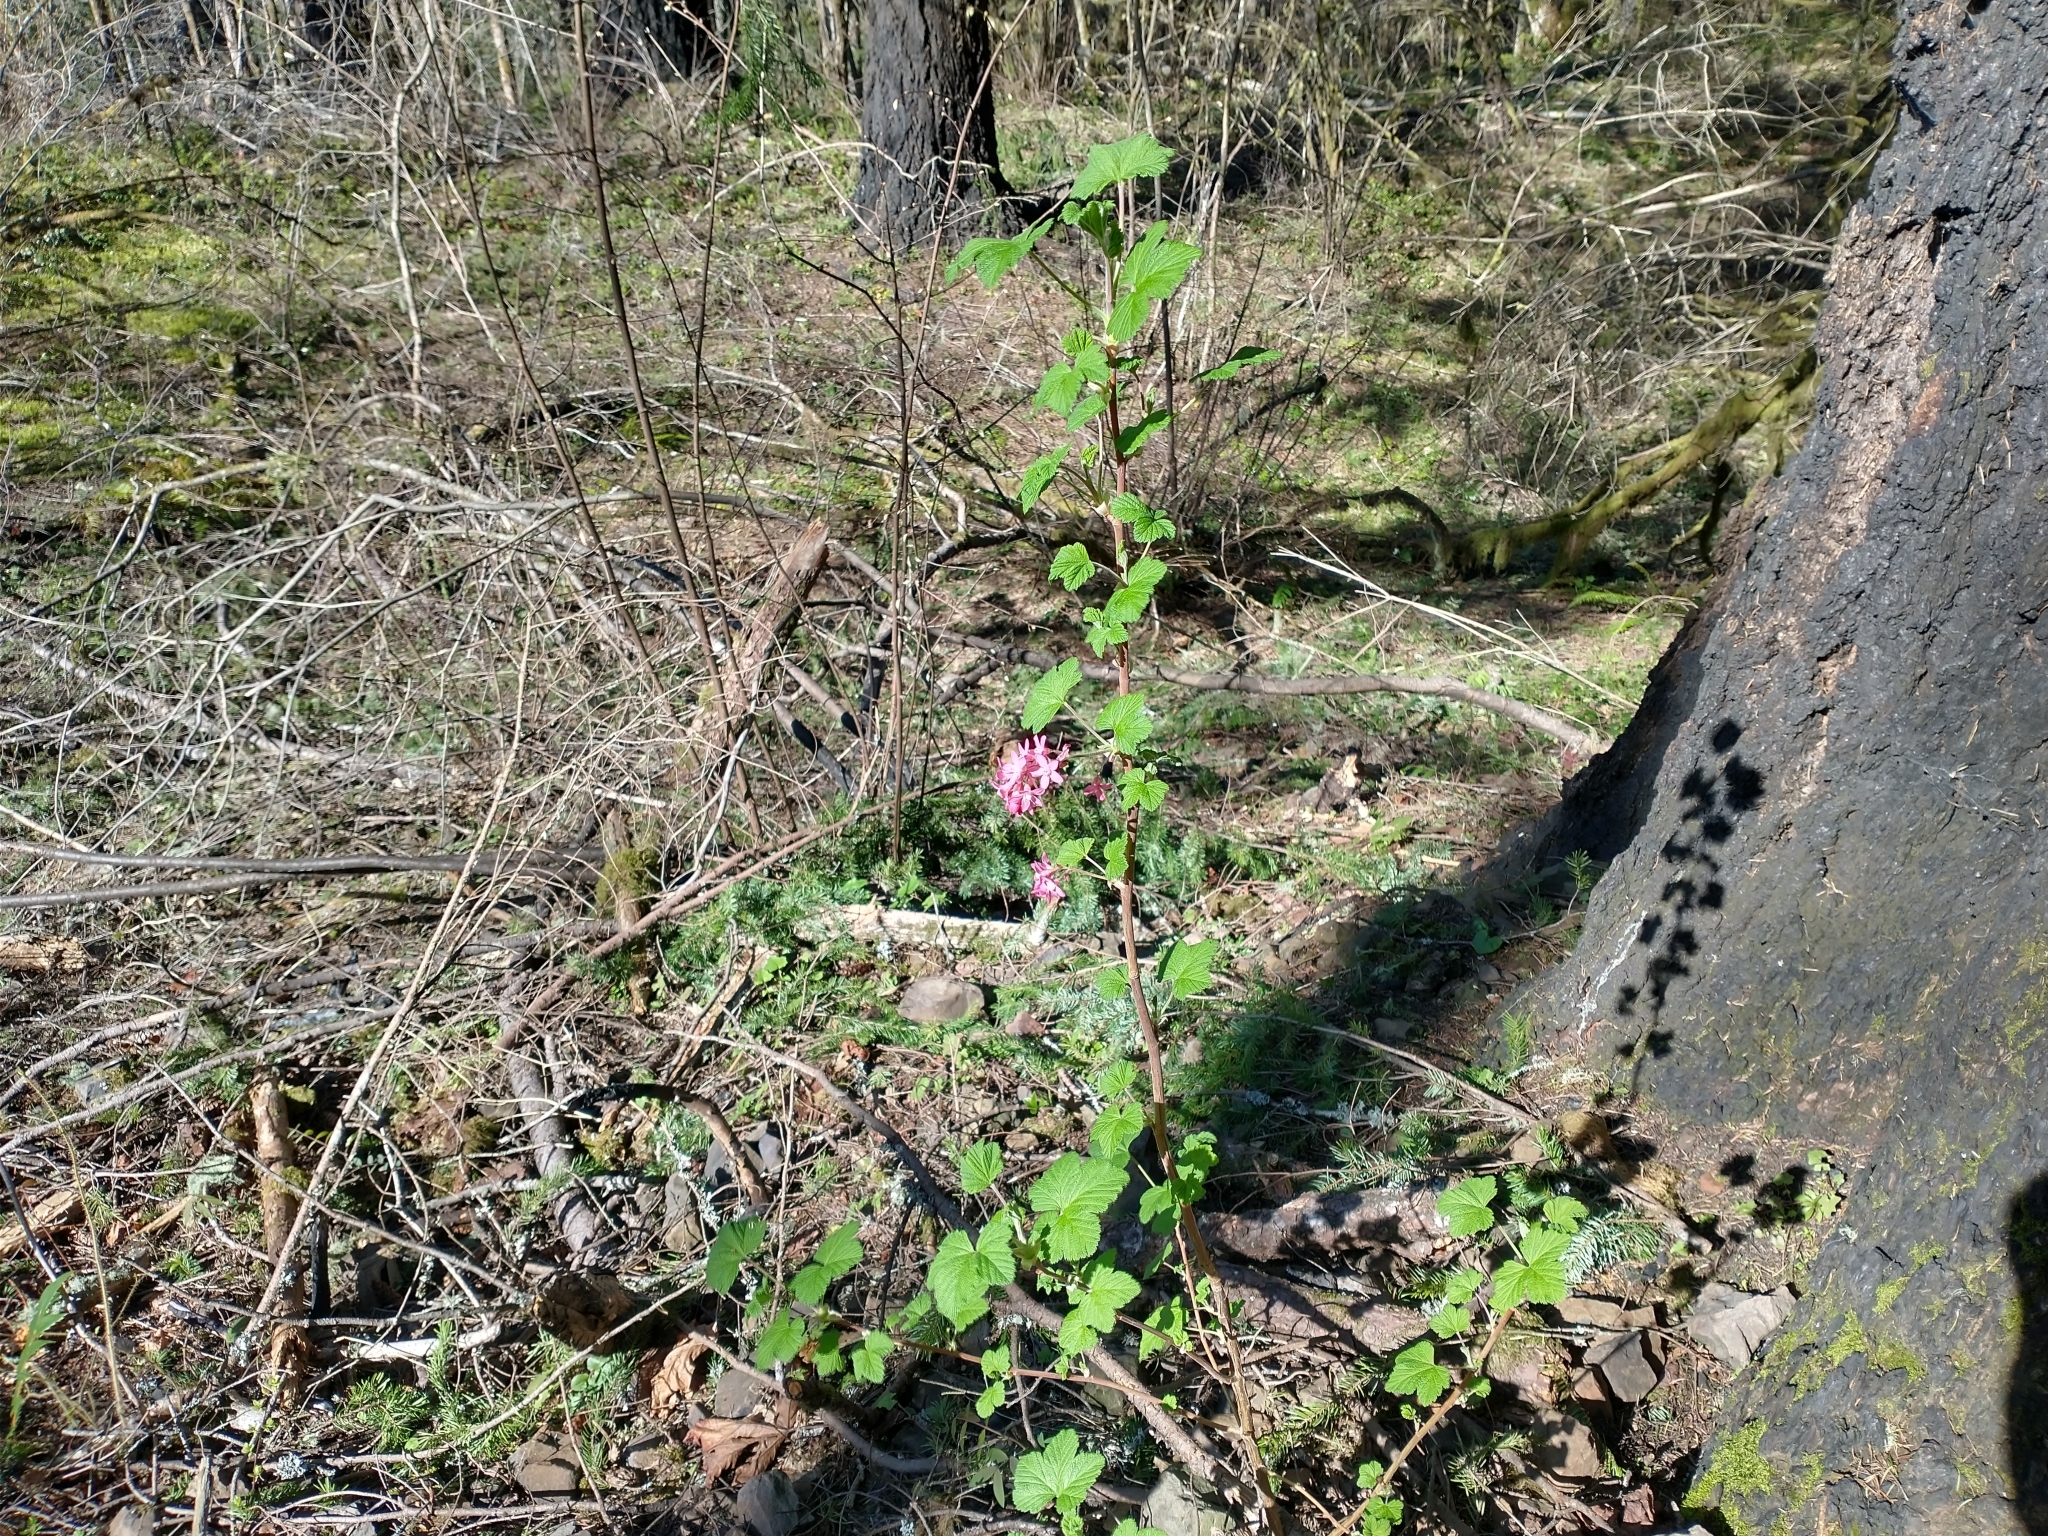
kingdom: Plantae
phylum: Tracheophyta
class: Magnoliopsida
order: Saxifragales
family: Grossulariaceae
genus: Ribes
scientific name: Ribes sanguineum
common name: Flowering currant
